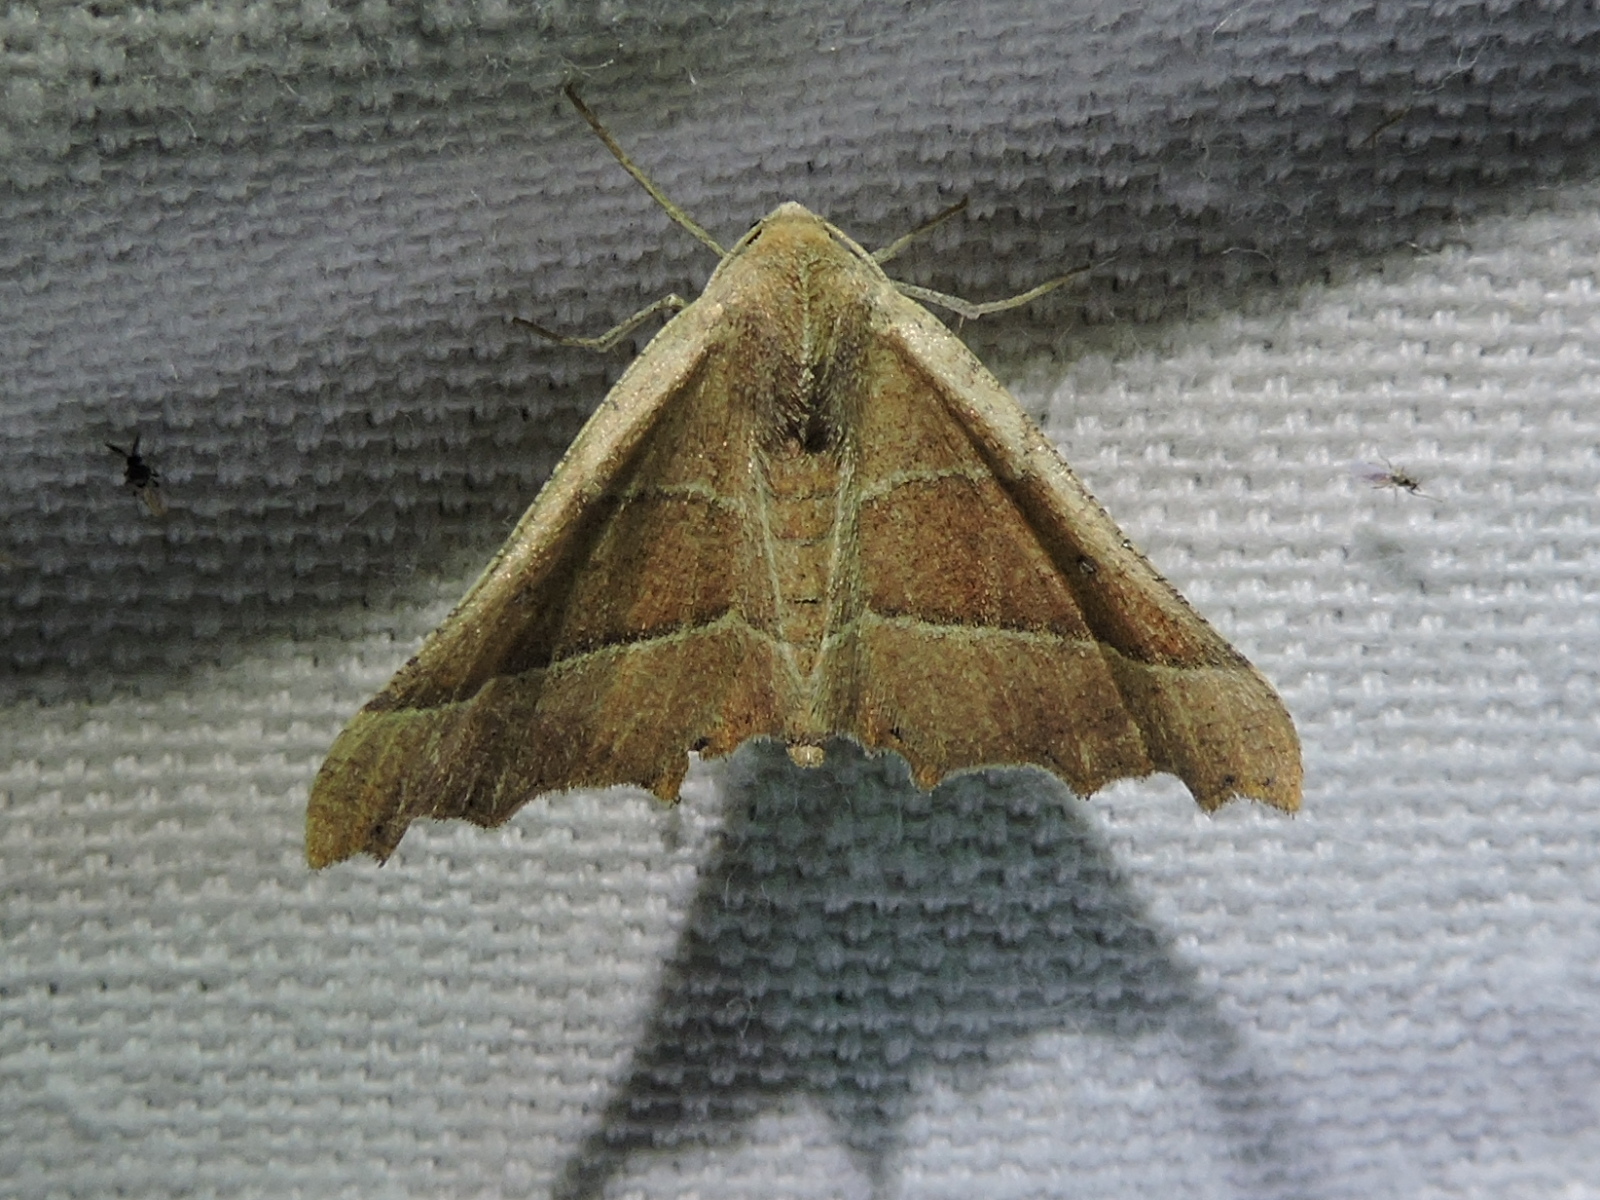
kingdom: Animalia
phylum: Arthropoda
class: Insecta
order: Lepidoptera
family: Geometridae
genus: Pero
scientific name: Pero radiosaria
